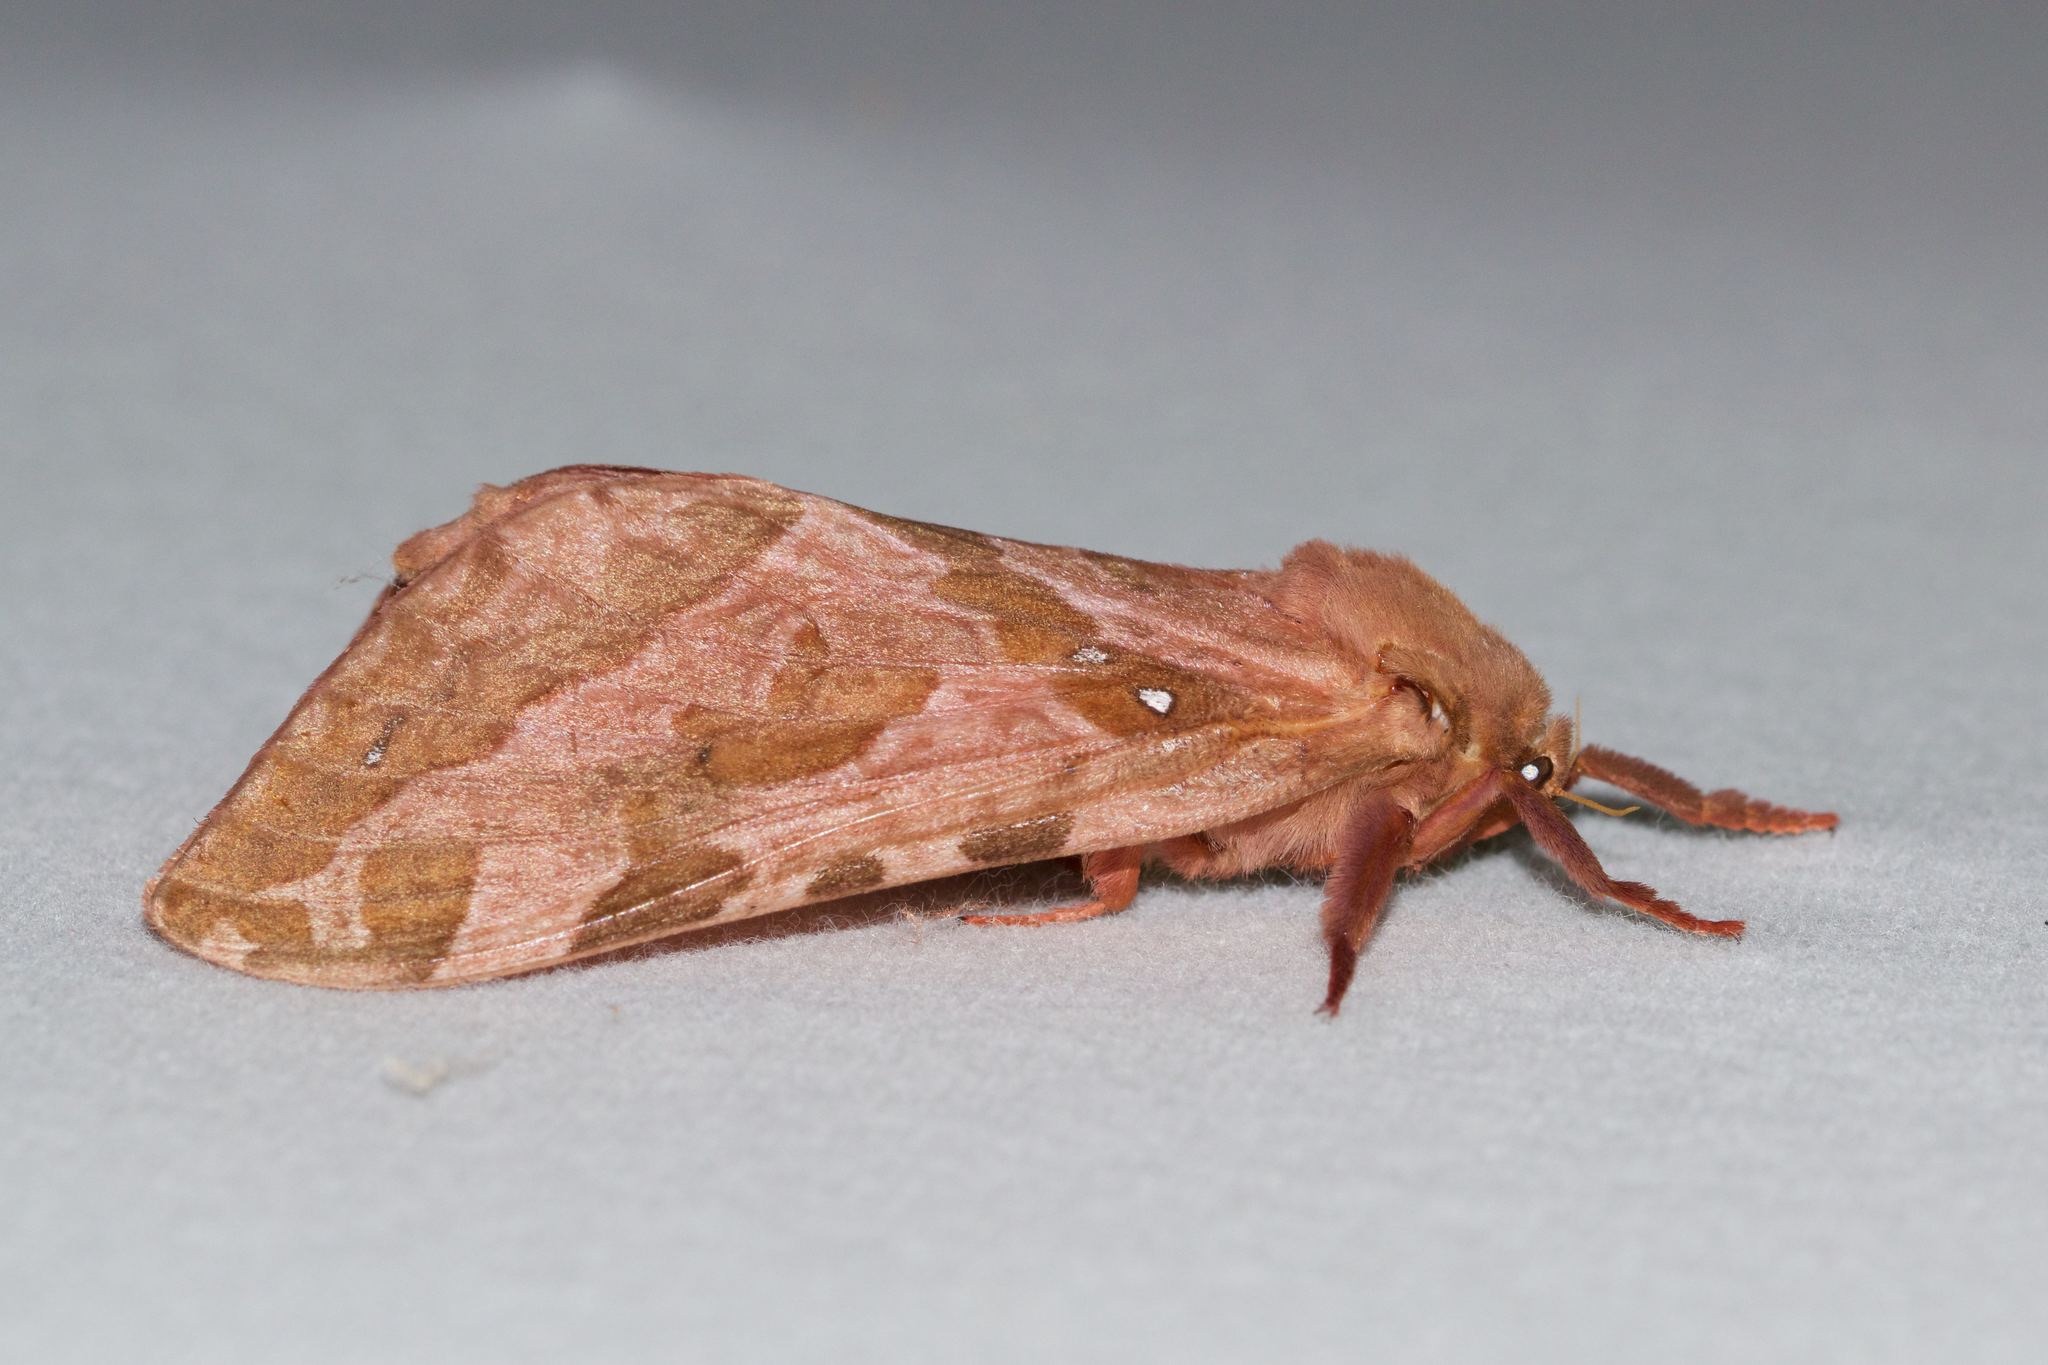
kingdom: Animalia
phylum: Arthropoda
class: Insecta
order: Lepidoptera
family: Hepialidae
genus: Sthenopis
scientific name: Sthenopis purpurascens
